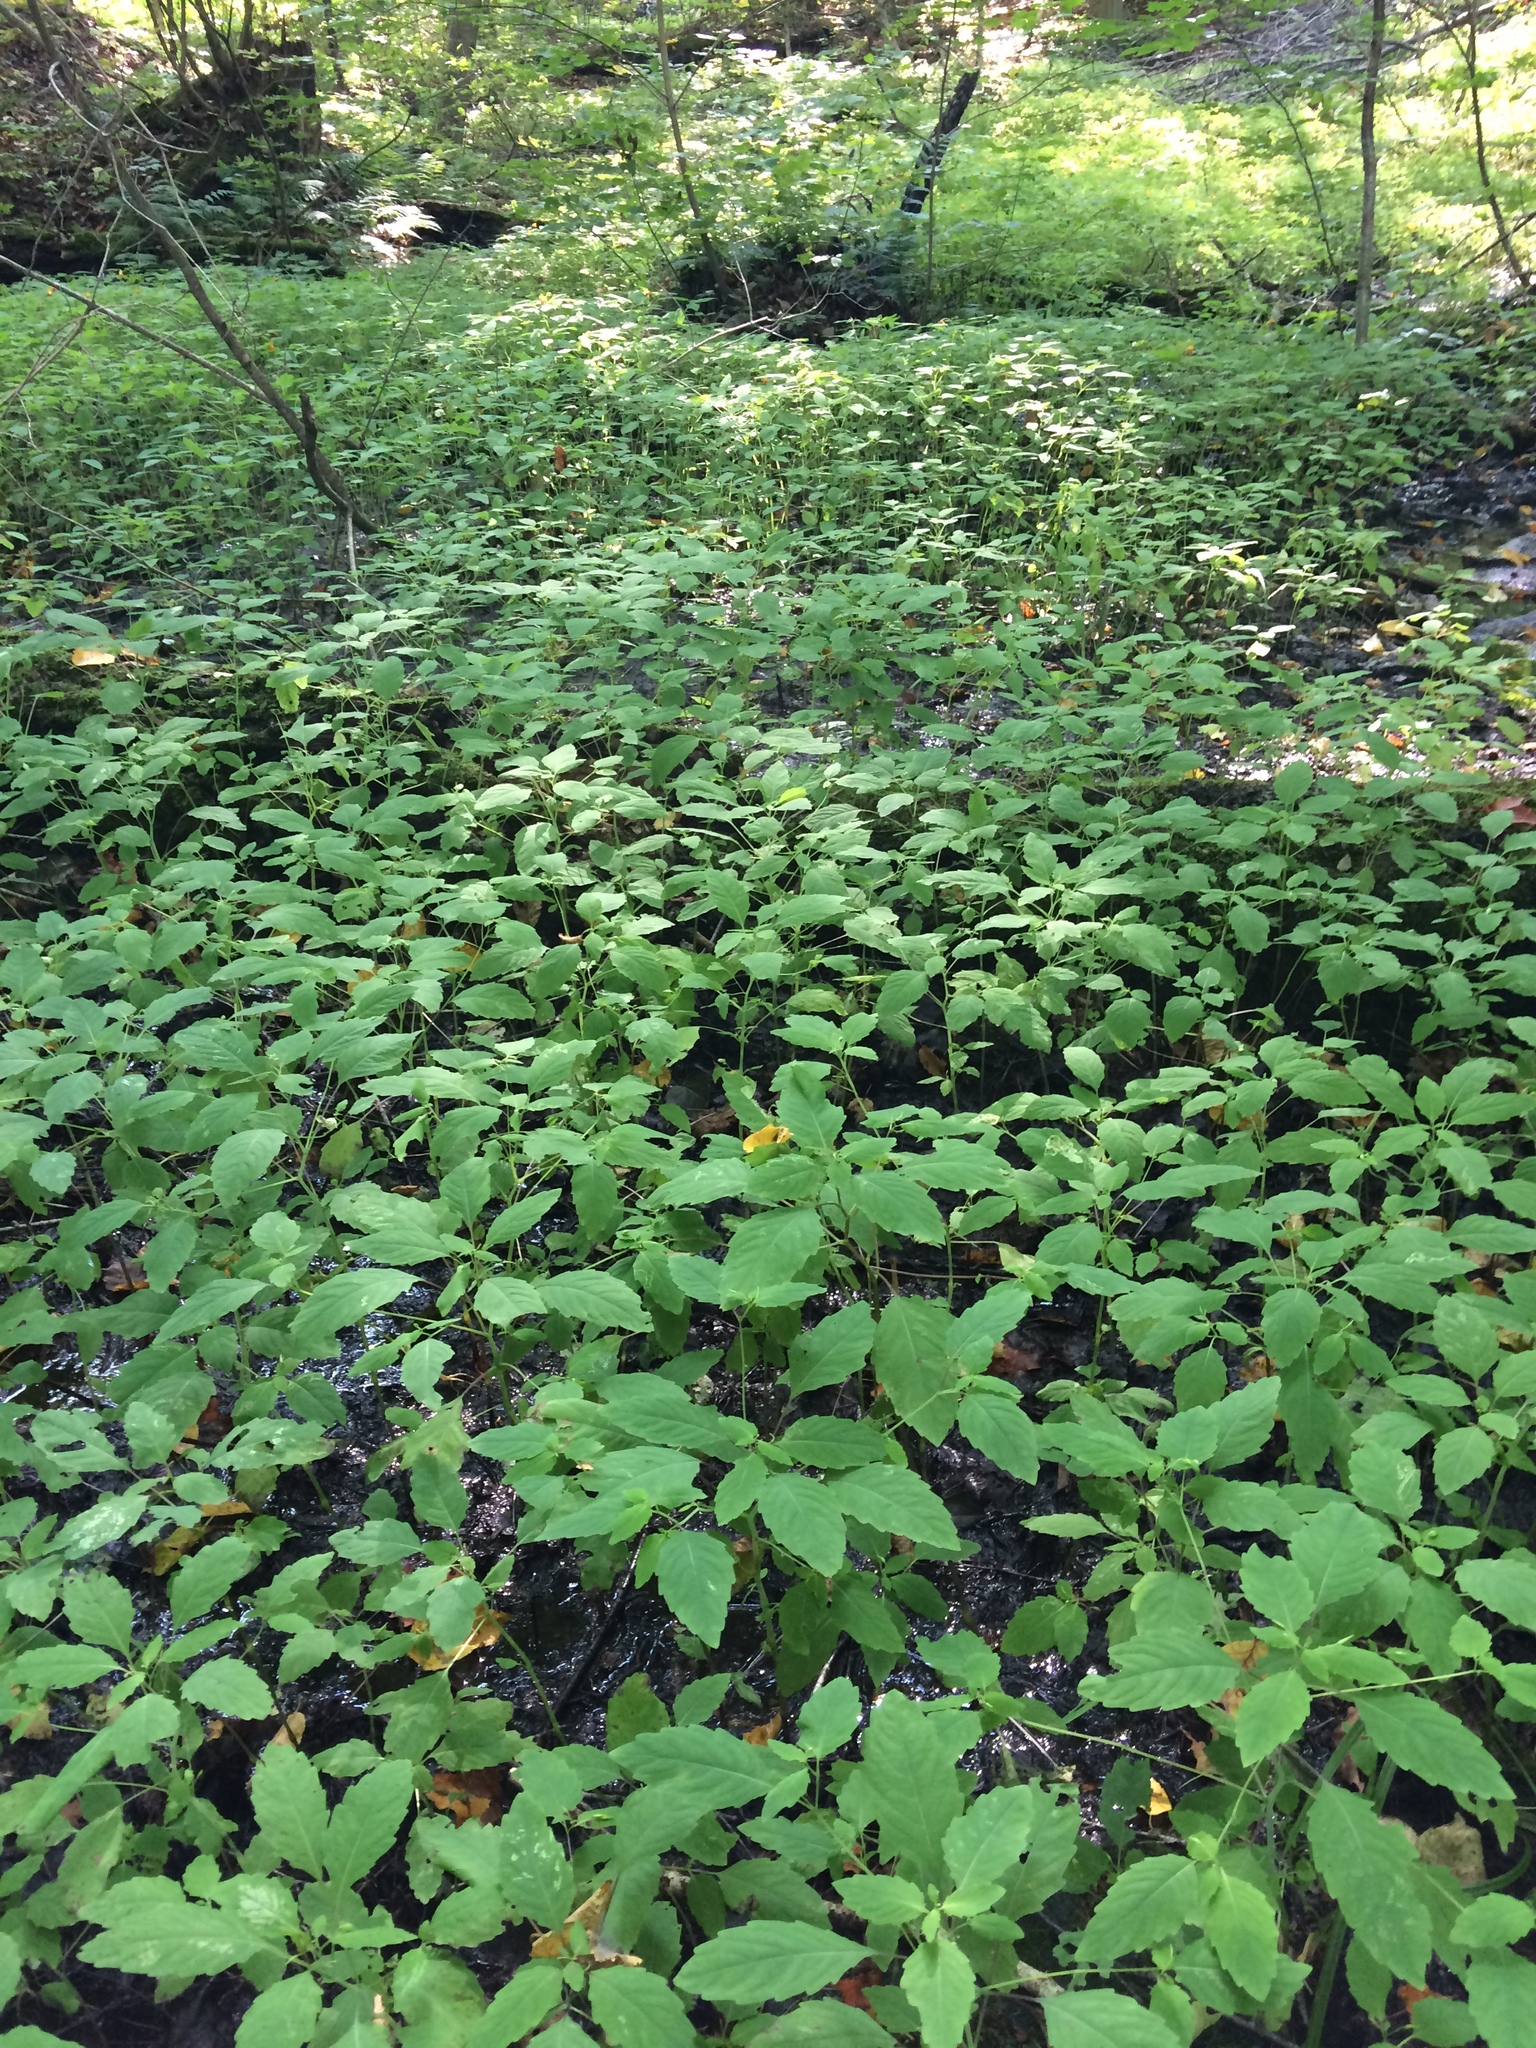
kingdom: Plantae
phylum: Tracheophyta
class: Magnoliopsida
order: Ericales
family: Balsaminaceae
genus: Impatiens
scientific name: Impatiens capensis
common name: Orange balsam
